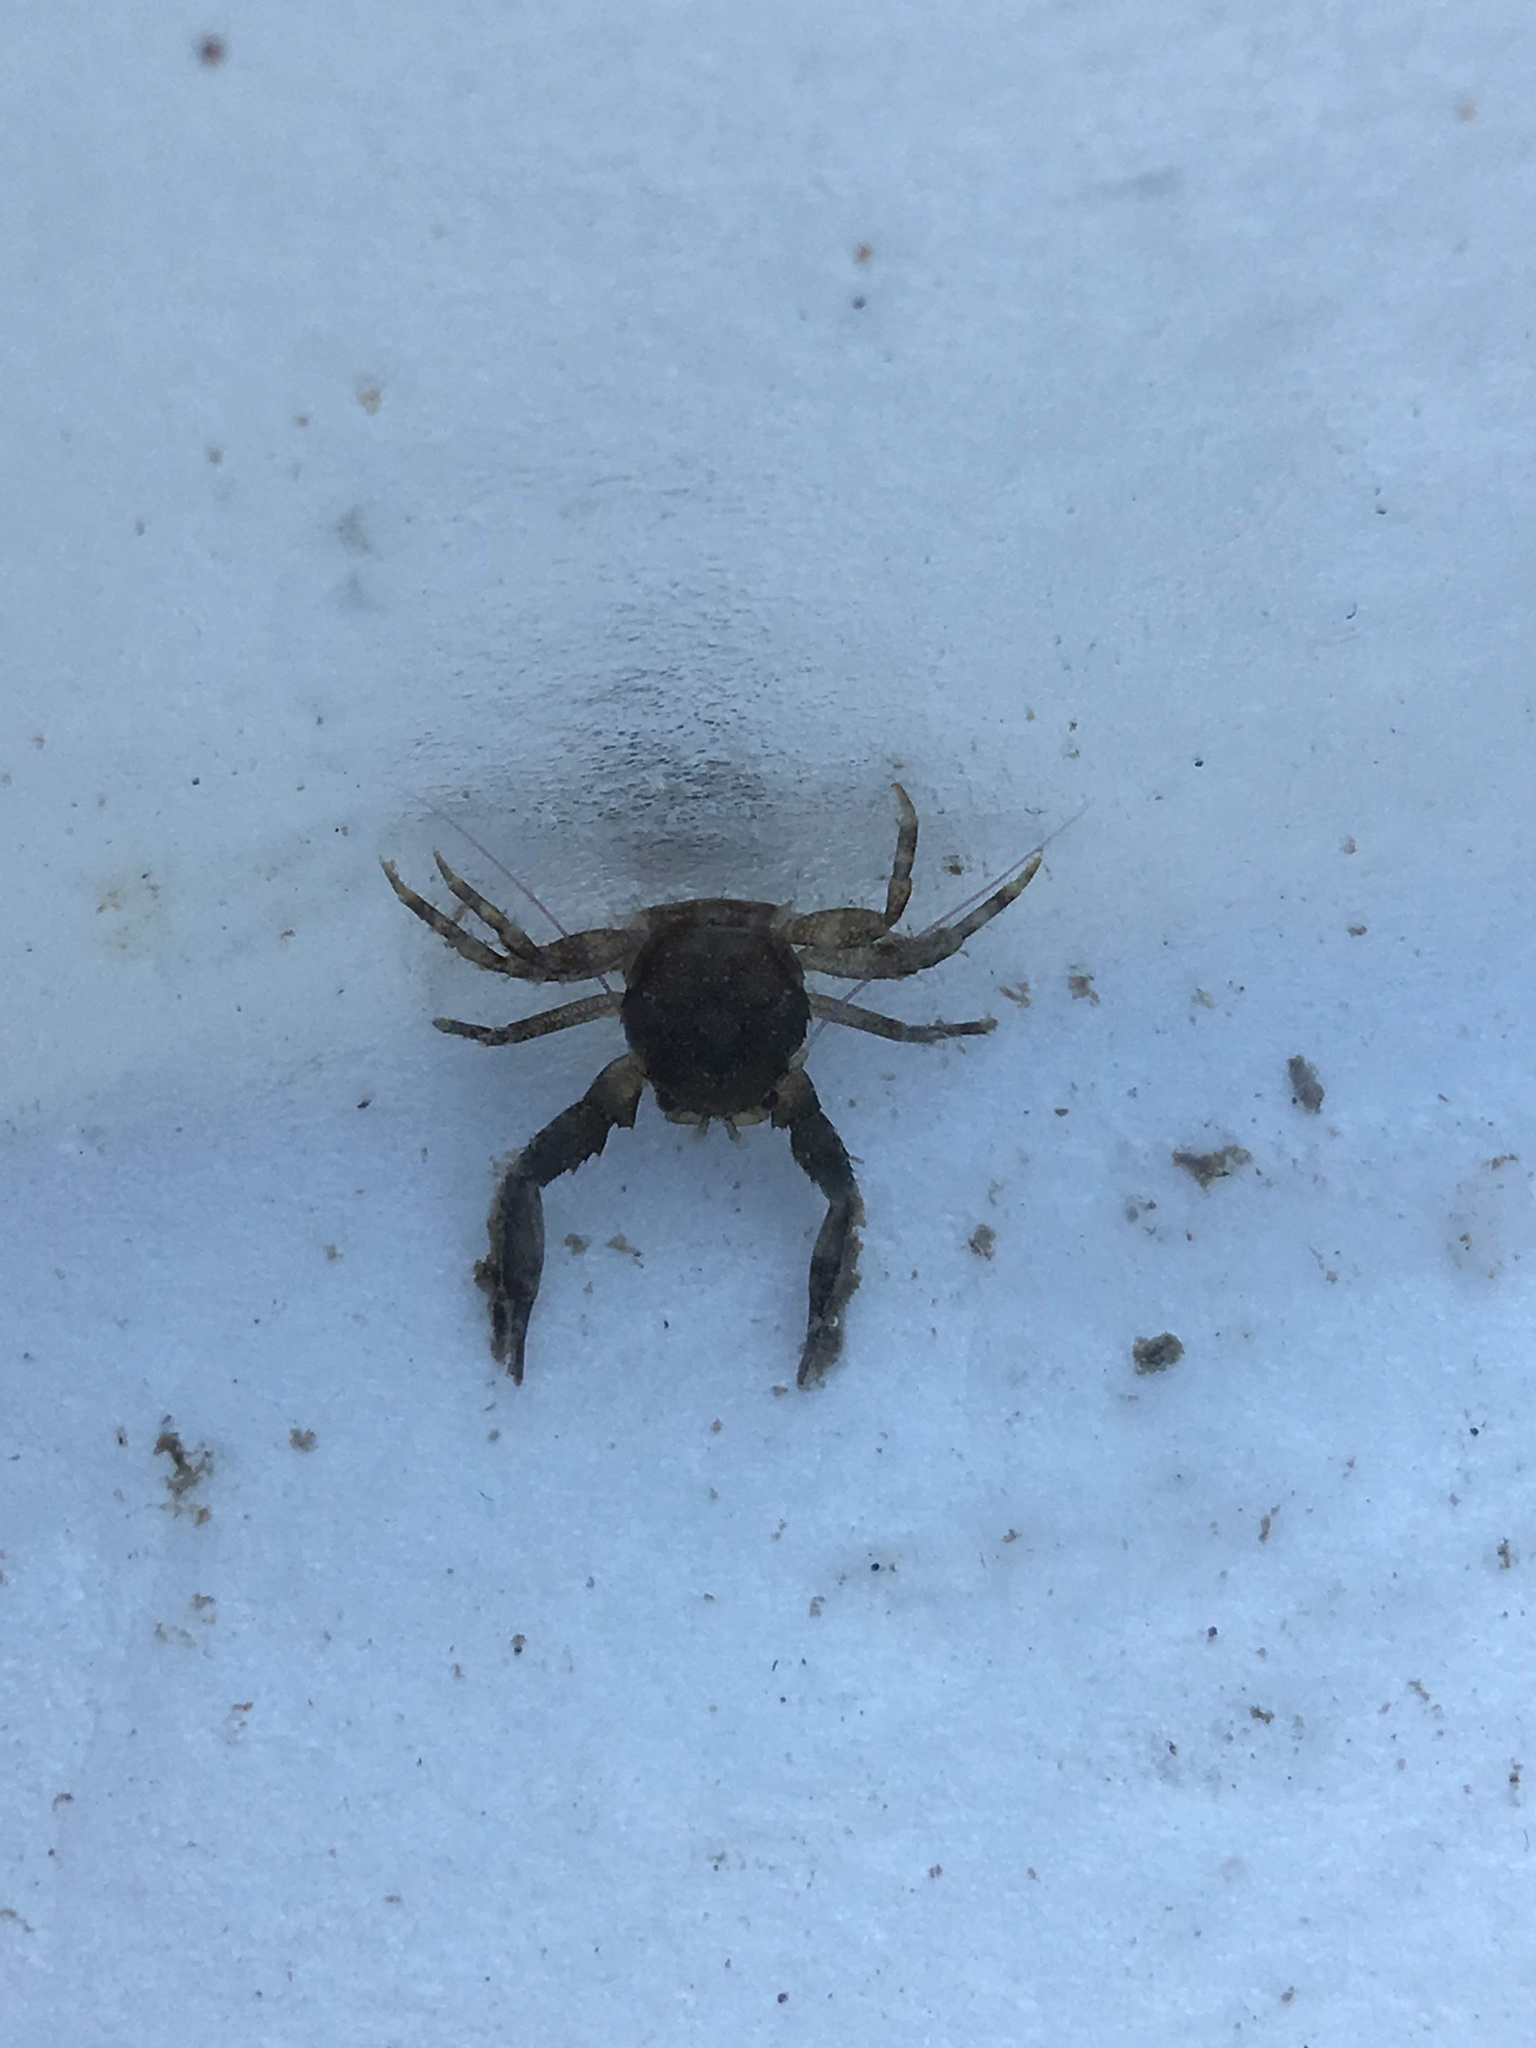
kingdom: Animalia
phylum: Arthropoda
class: Malacostraca
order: Decapoda
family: Porcellanidae
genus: Pisidia
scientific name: Pisidia bluteli
